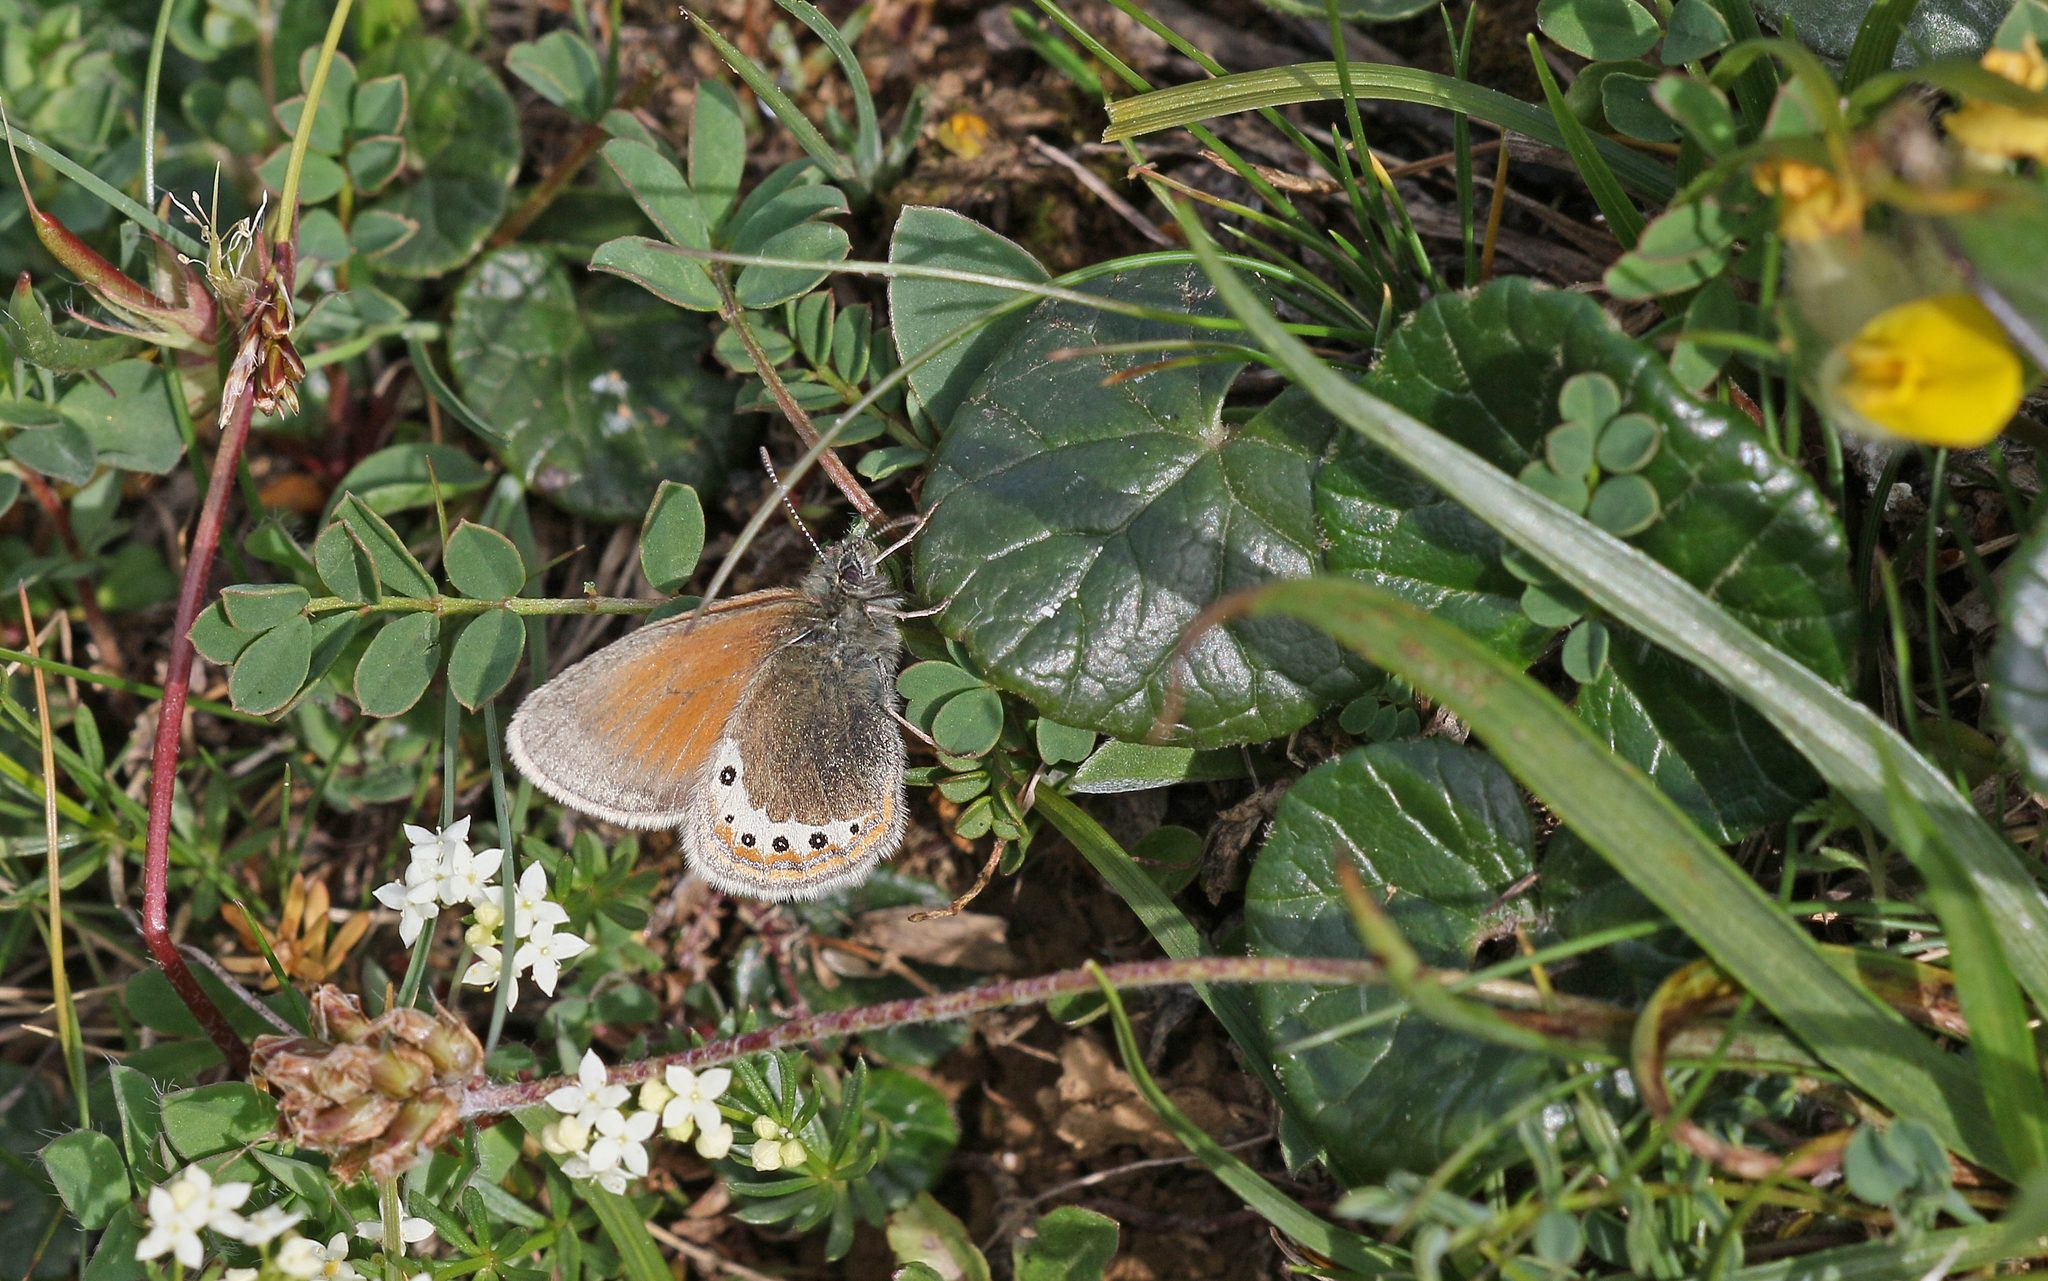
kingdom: Animalia
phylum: Arthropoda
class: Insecta
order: Lepidoptera
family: Nymphalidae
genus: Coenonympha
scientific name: Coenonympha
